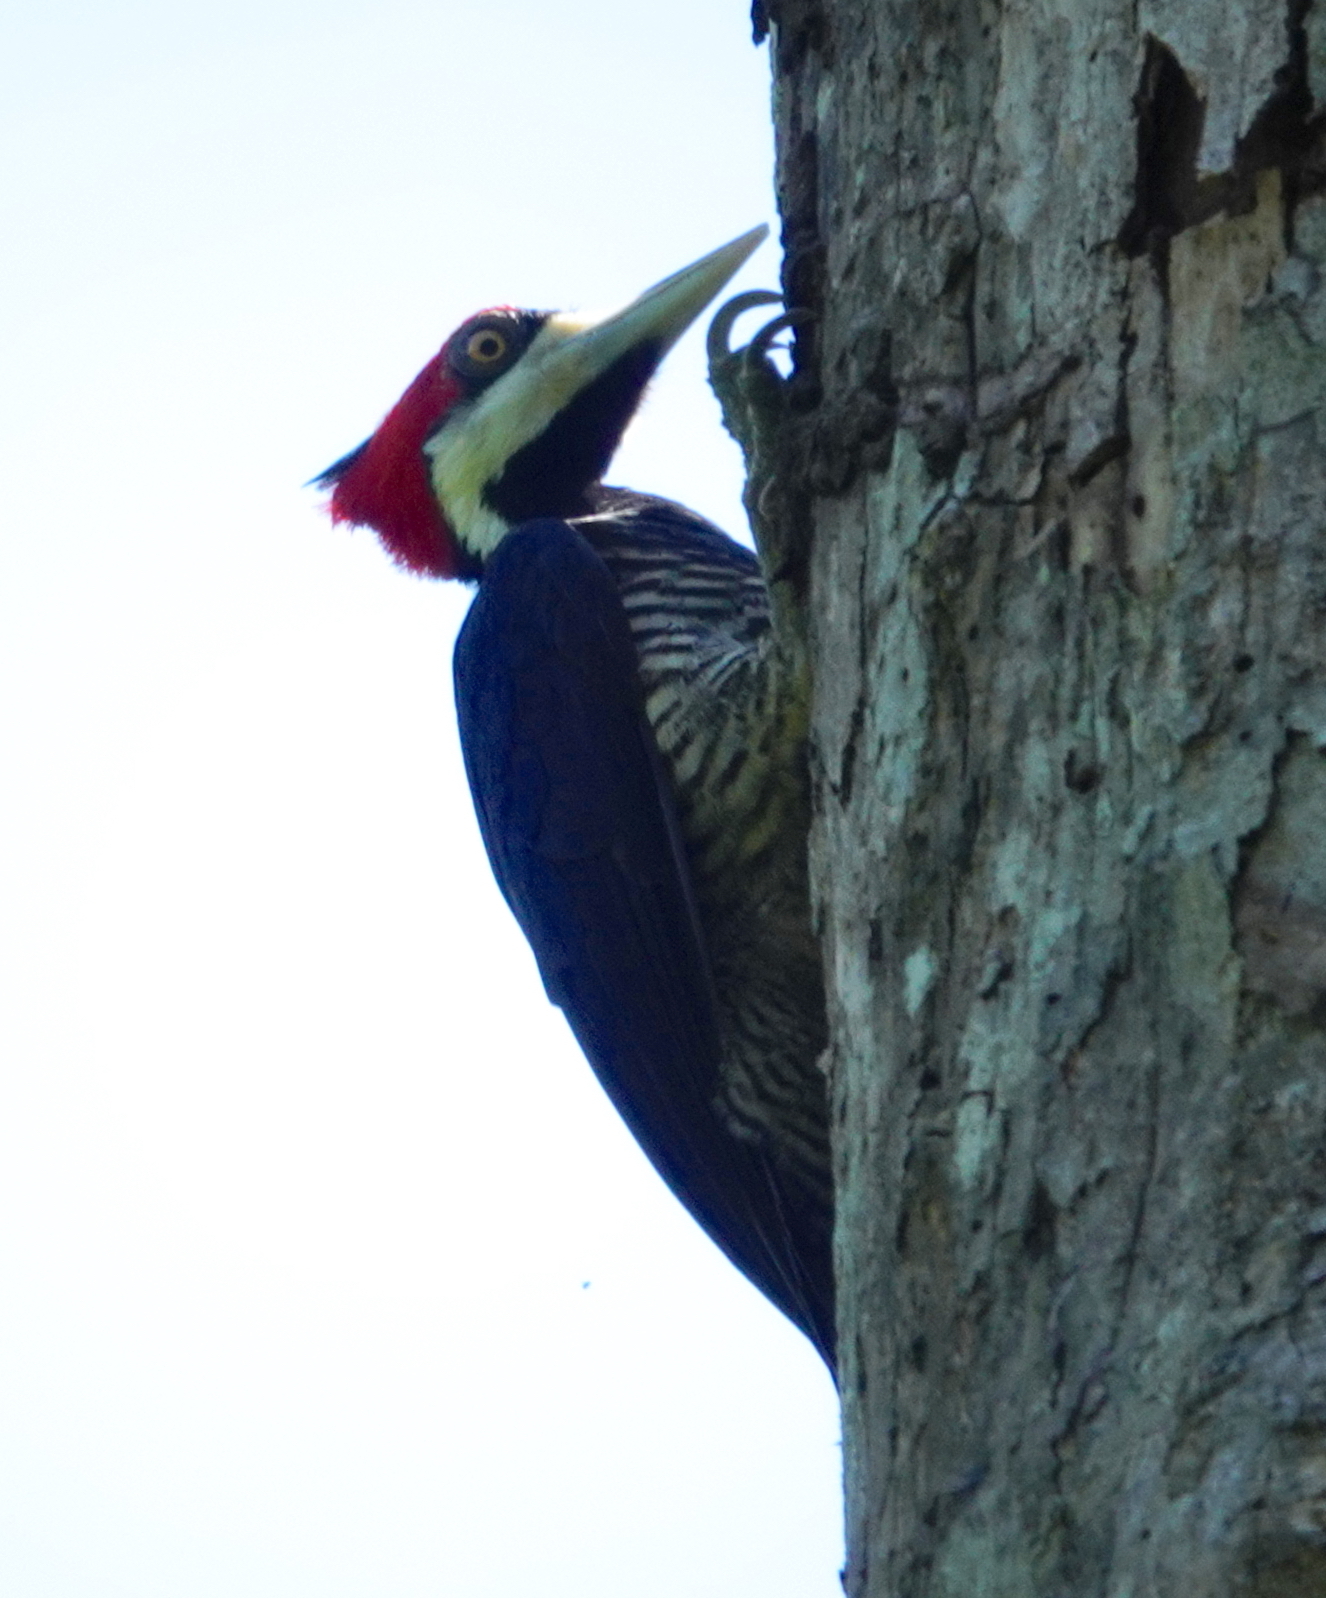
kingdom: Animalia
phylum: Chordata
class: Aves
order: Piciformes
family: Picidae
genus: Campephilus
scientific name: Campephilus melanoleucos
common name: Crimson-crested woodpecker
